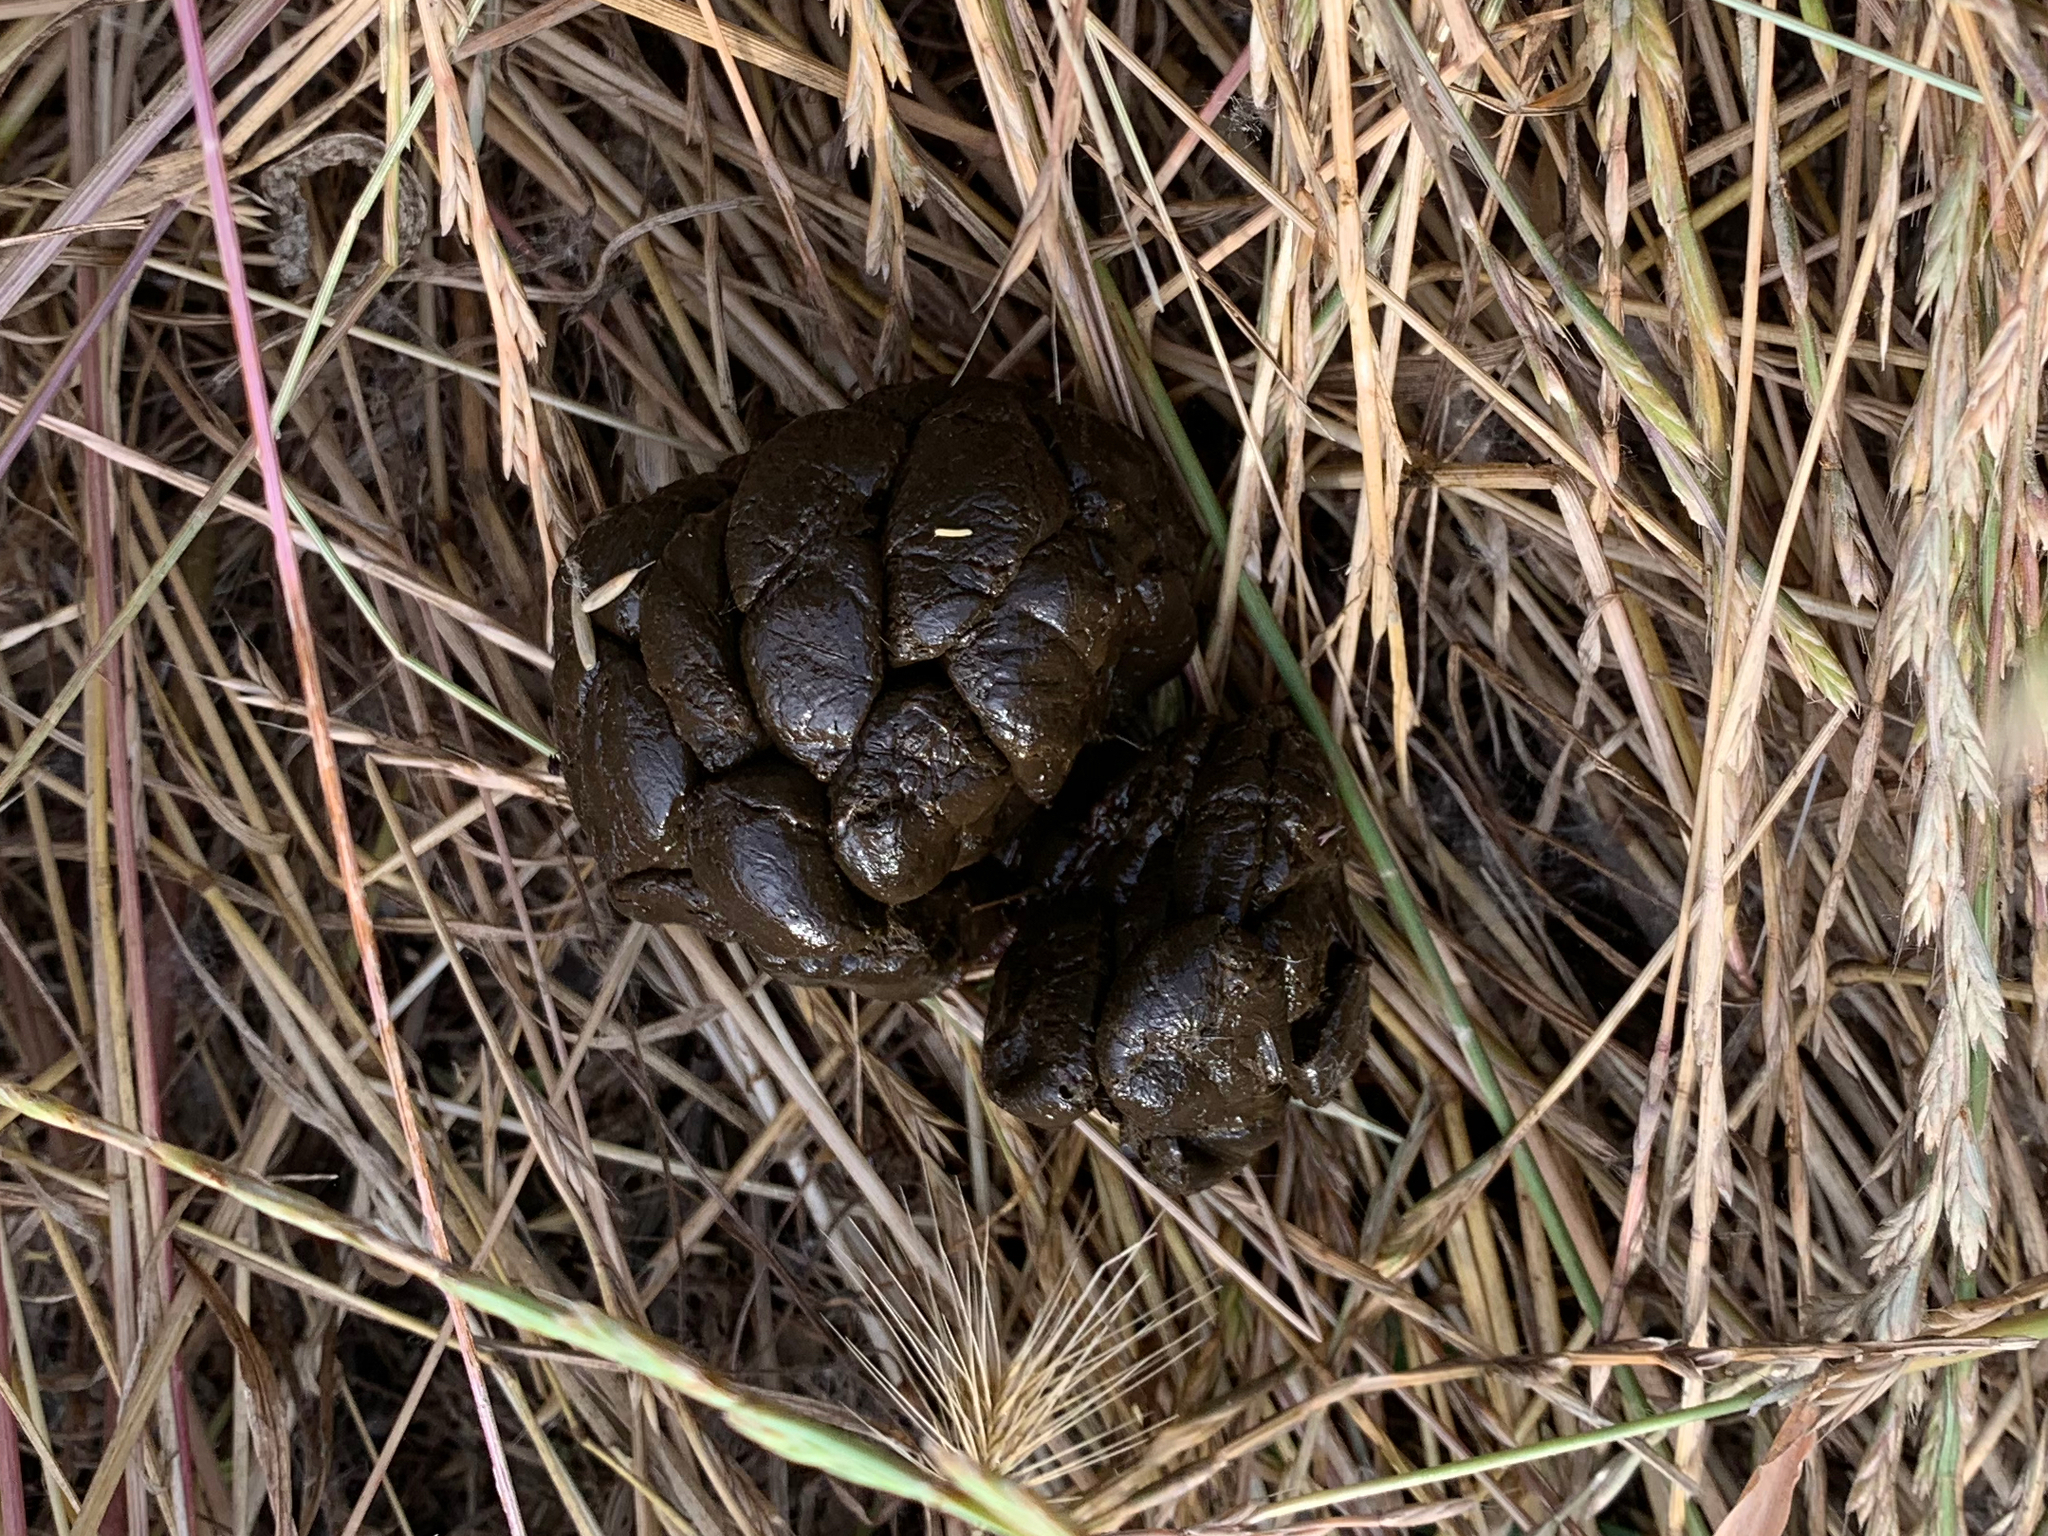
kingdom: Animalia
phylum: Chordata
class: Mammalia
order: Artiodactyla
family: Cervidae
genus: Odocoileus
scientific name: Odocoileus hemionus
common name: Mule deer
